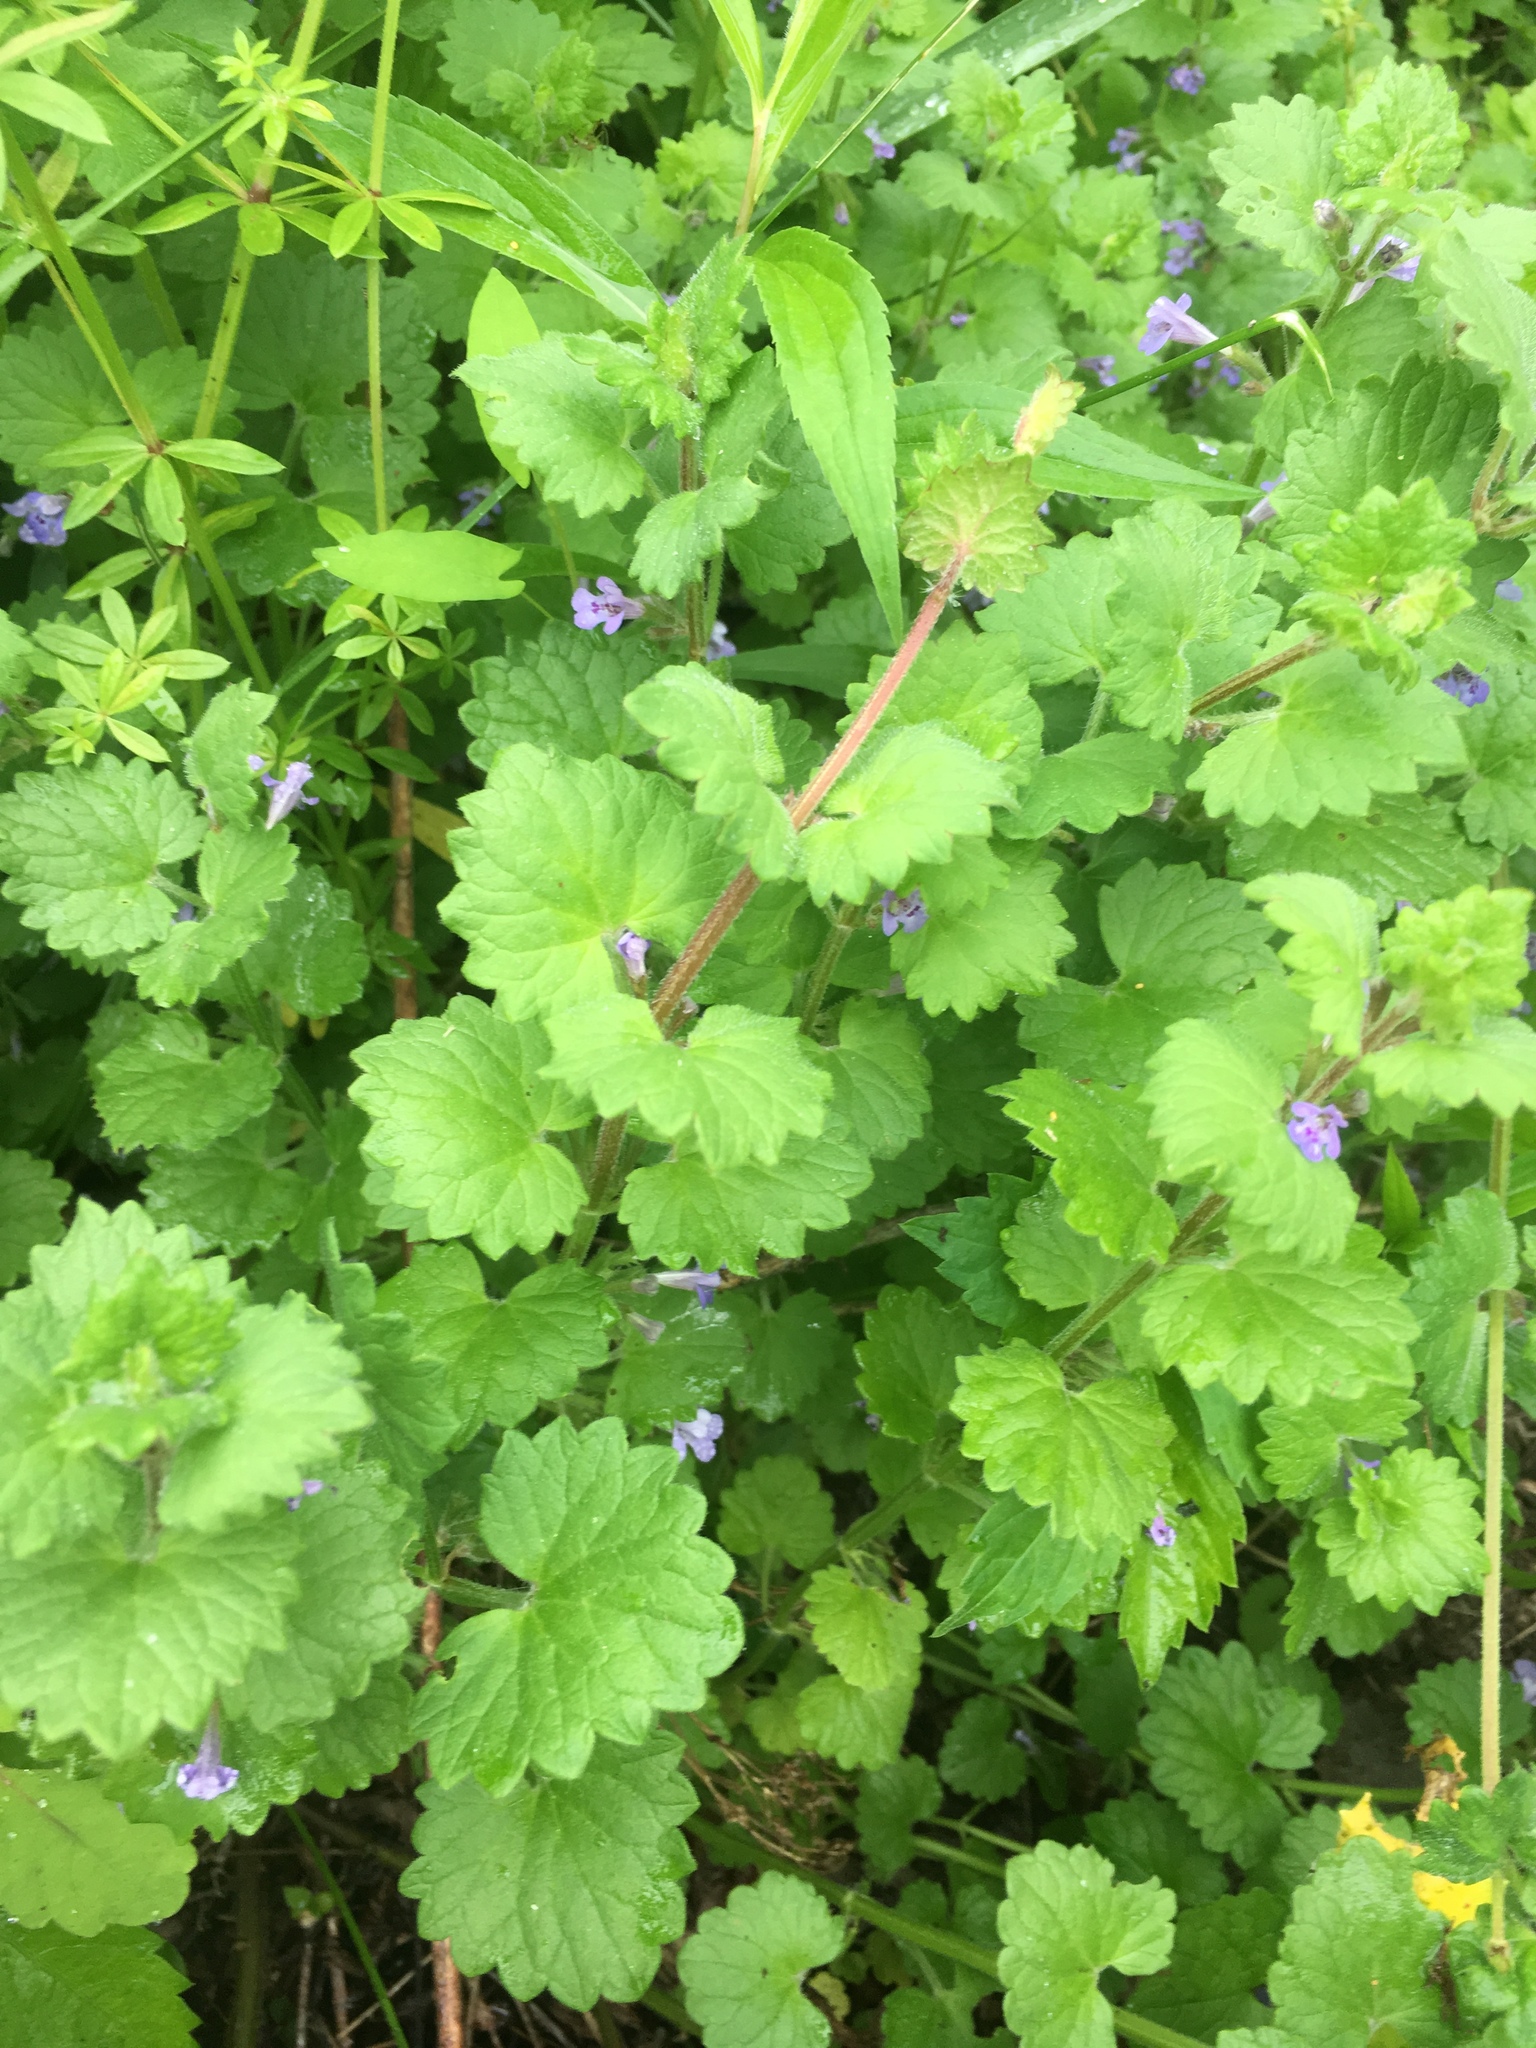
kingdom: Plantae
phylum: Tracheophyta
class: Magnoliopsida
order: Lamiales
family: Lamiaceae
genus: Glechoma
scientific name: Glechoma hederacea
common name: Ground ivy
